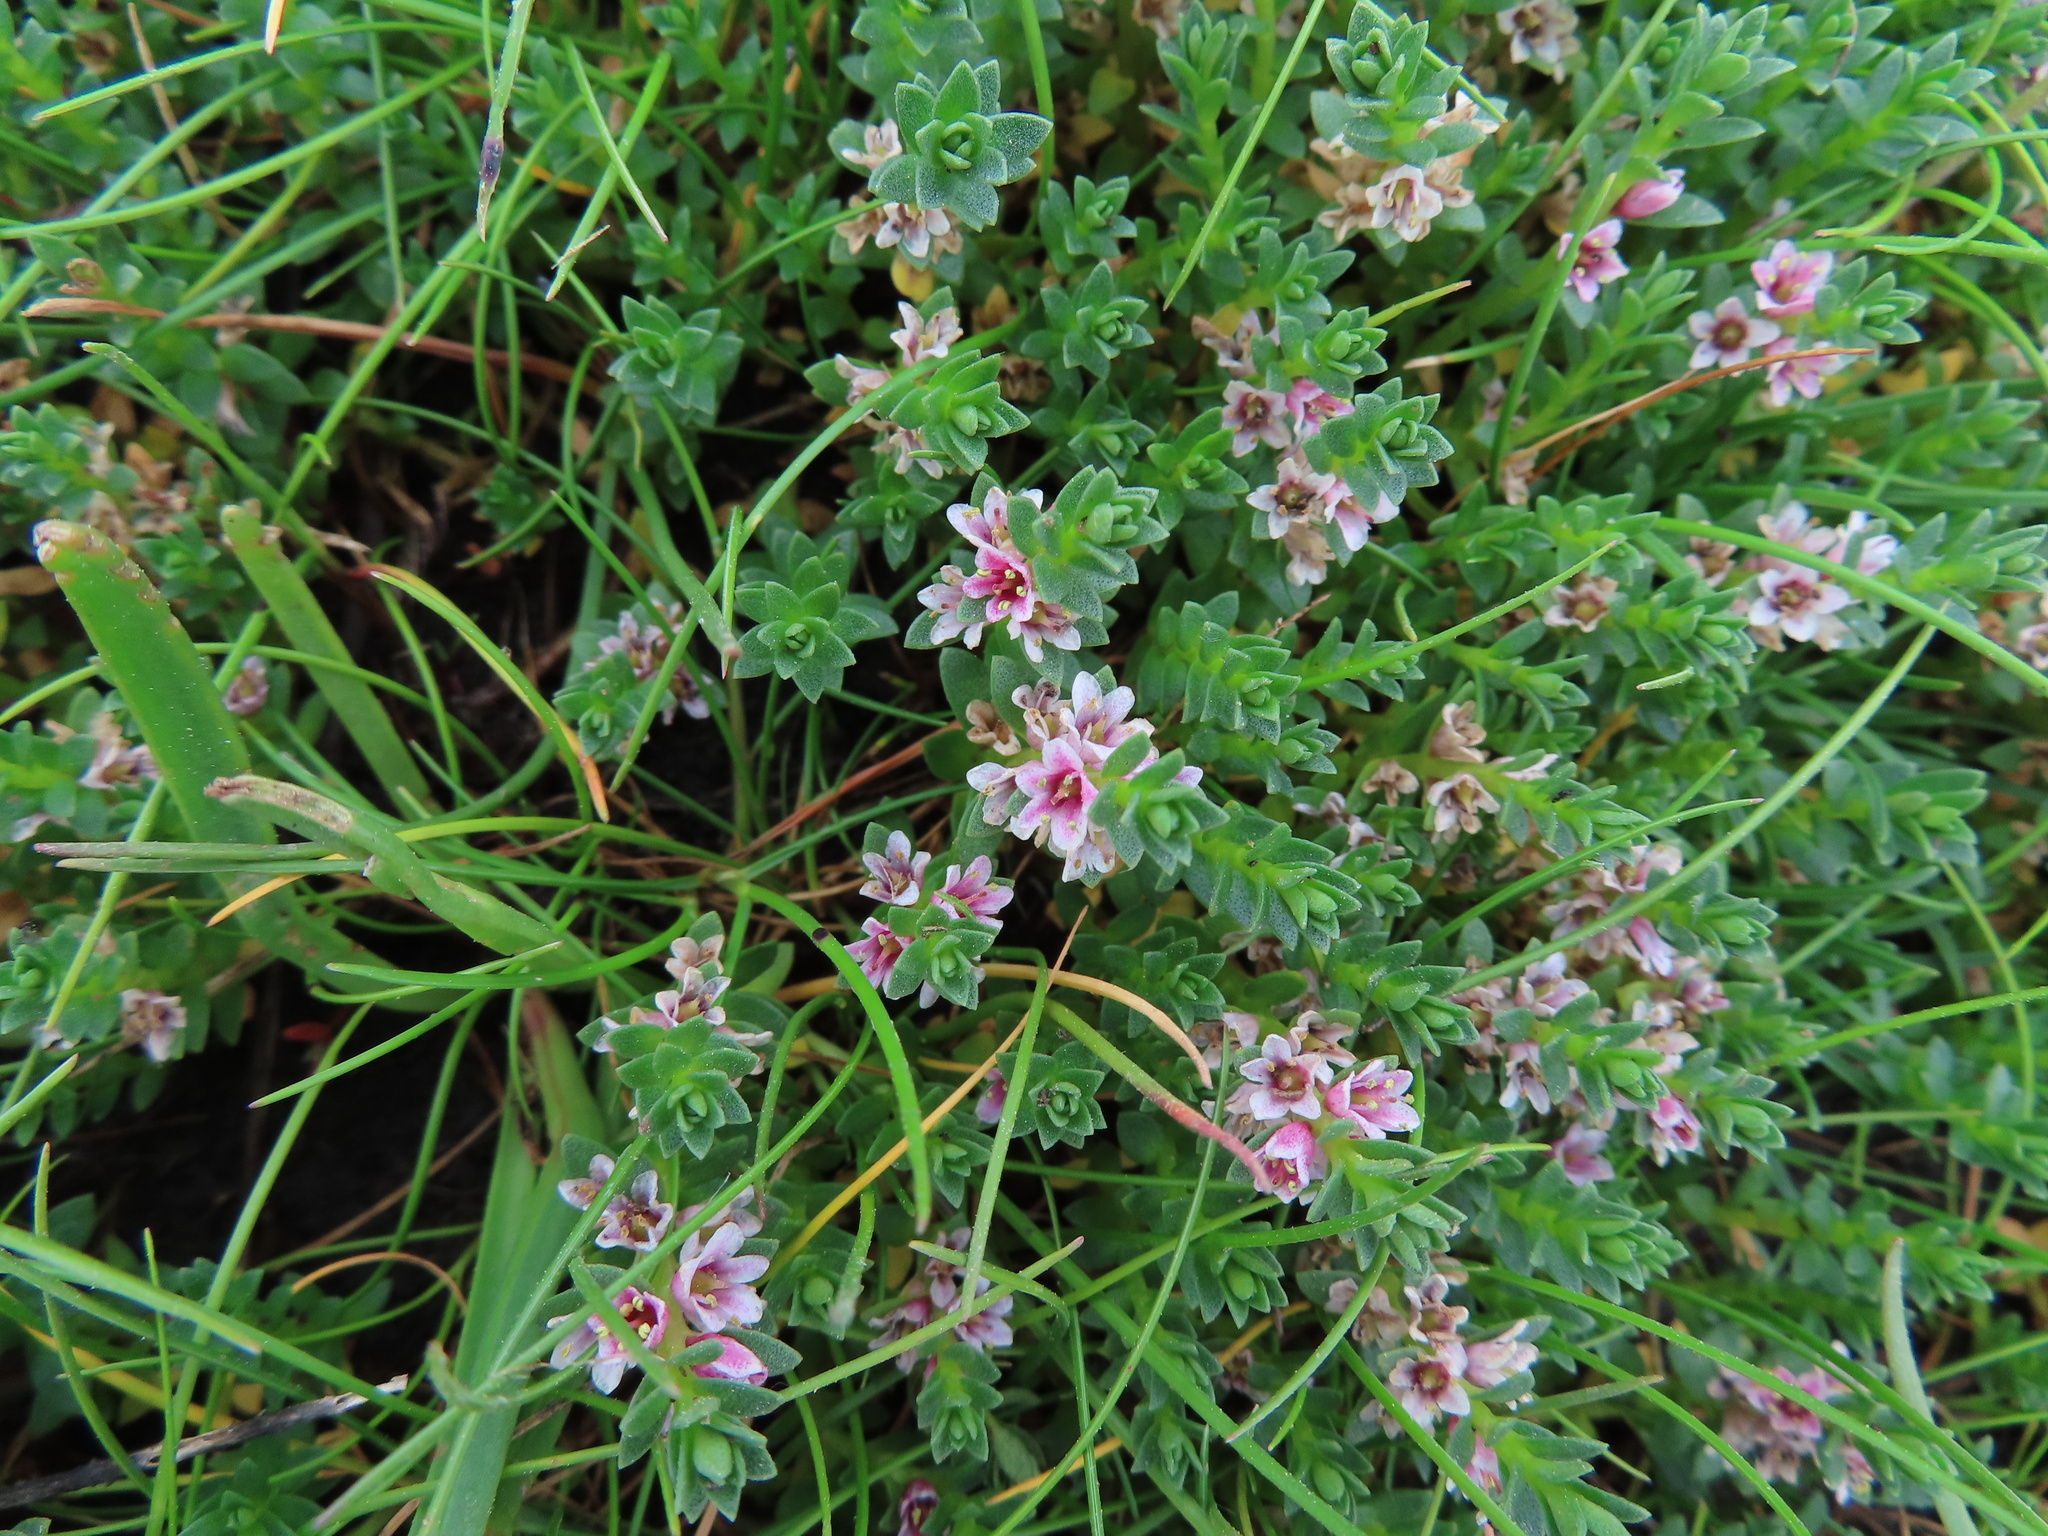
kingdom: Plantae
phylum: Tracheophyta
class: Magnoliopsida
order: Ericales
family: Primulaceae
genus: Lysimachia
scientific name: Lysimachia maritima
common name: Sea milkwort
